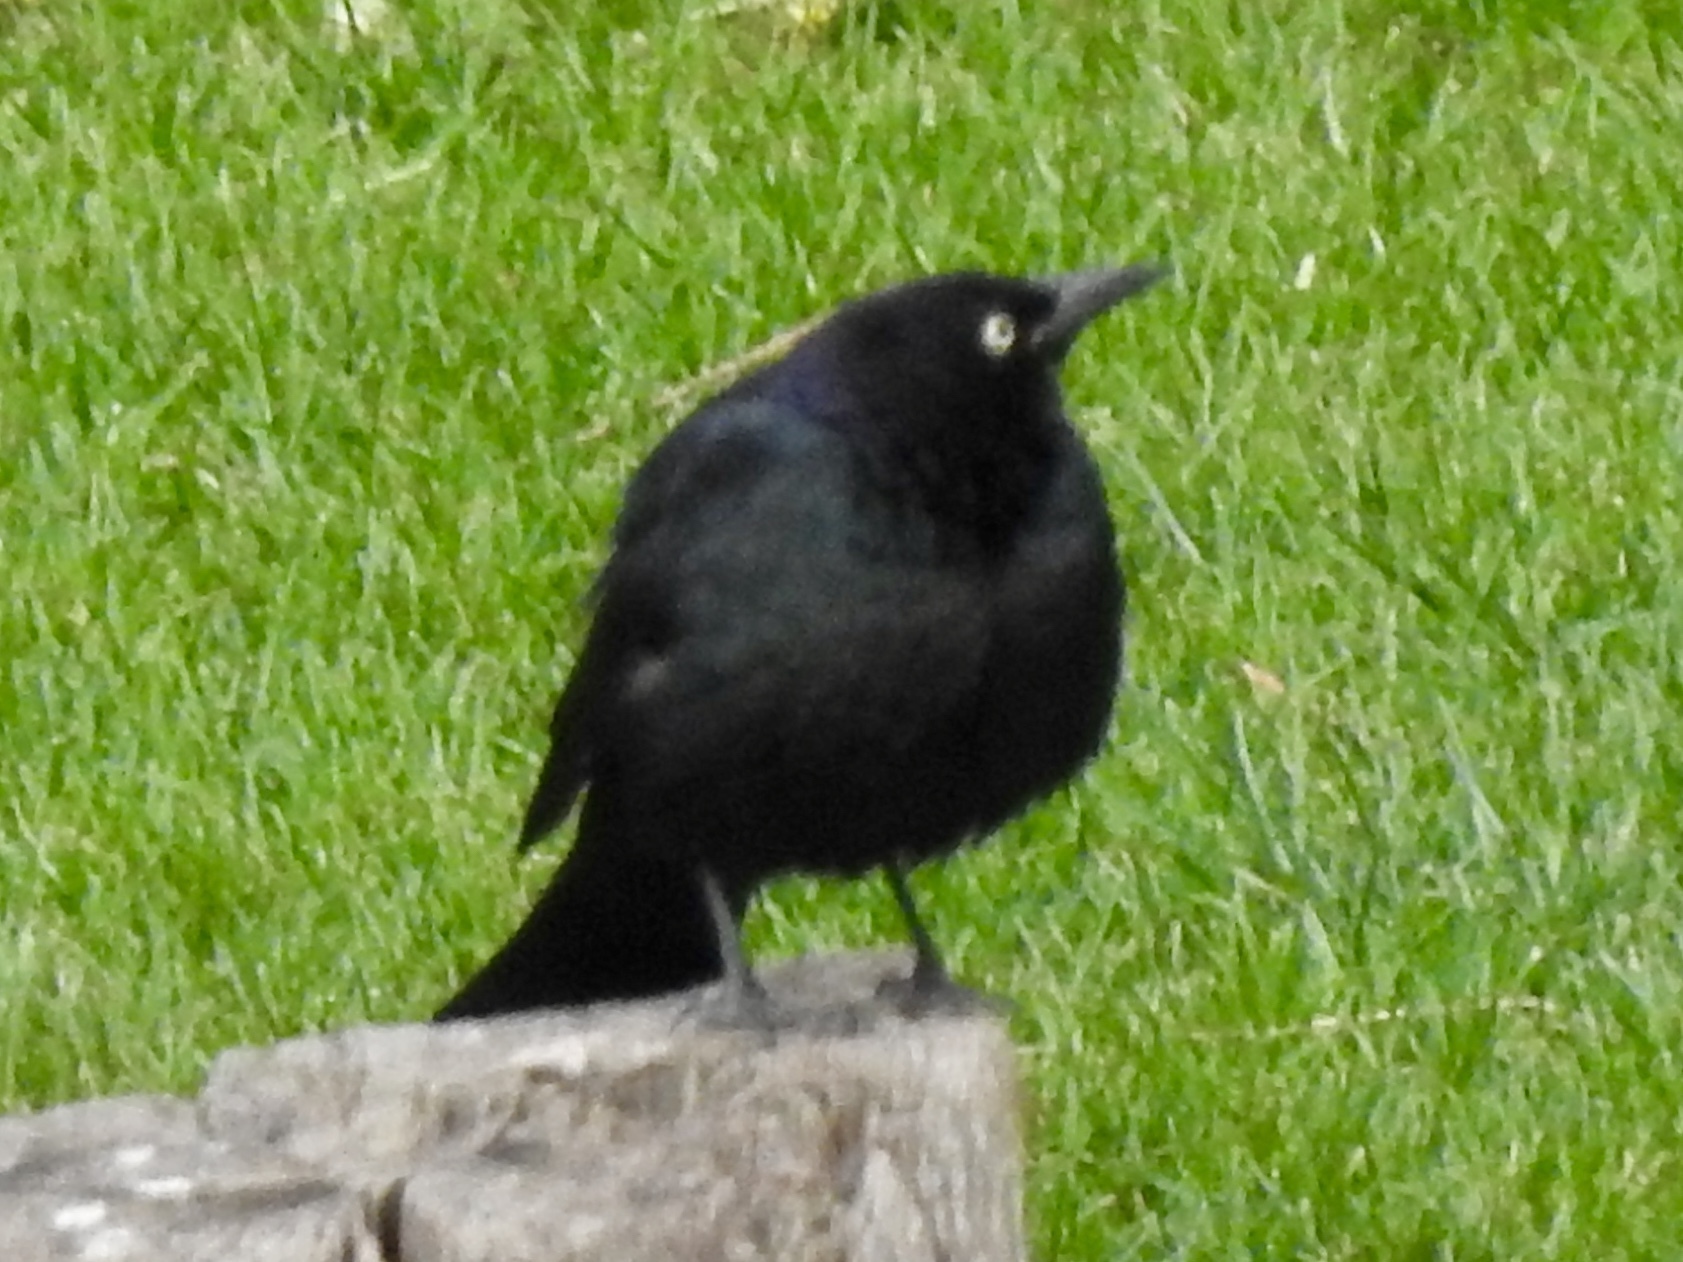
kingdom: Animalia
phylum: Chordata
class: Aves
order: Passeriformes
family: Icteridae
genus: Euphagus
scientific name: Euphagus cyanocephalus
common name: Brewer's blackbird
